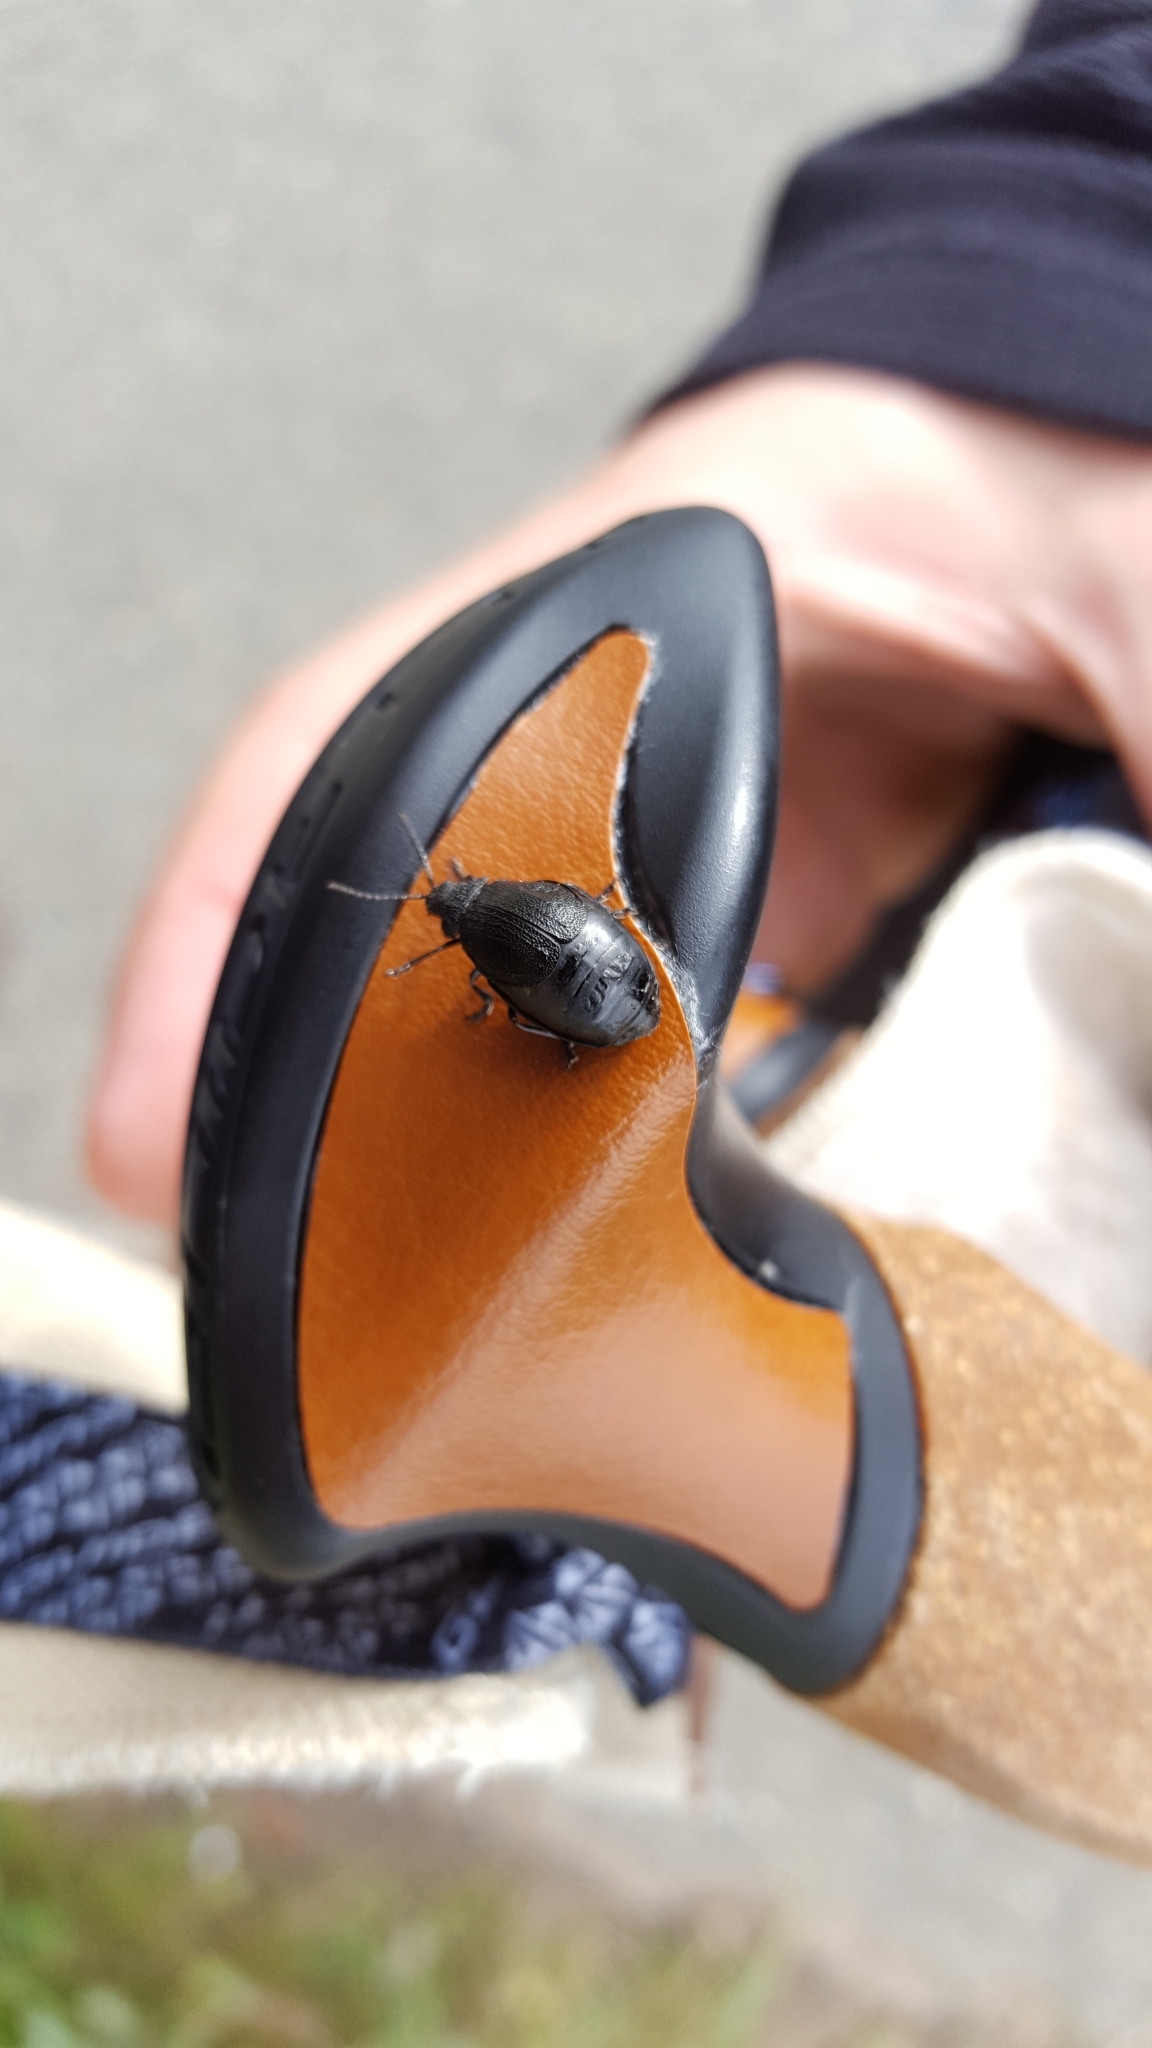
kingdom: Animalia
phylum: Arthropoda
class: Insecta
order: Coleoptera
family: Chrysomelidae
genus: Galeruca
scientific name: Galeruca tanaceti
